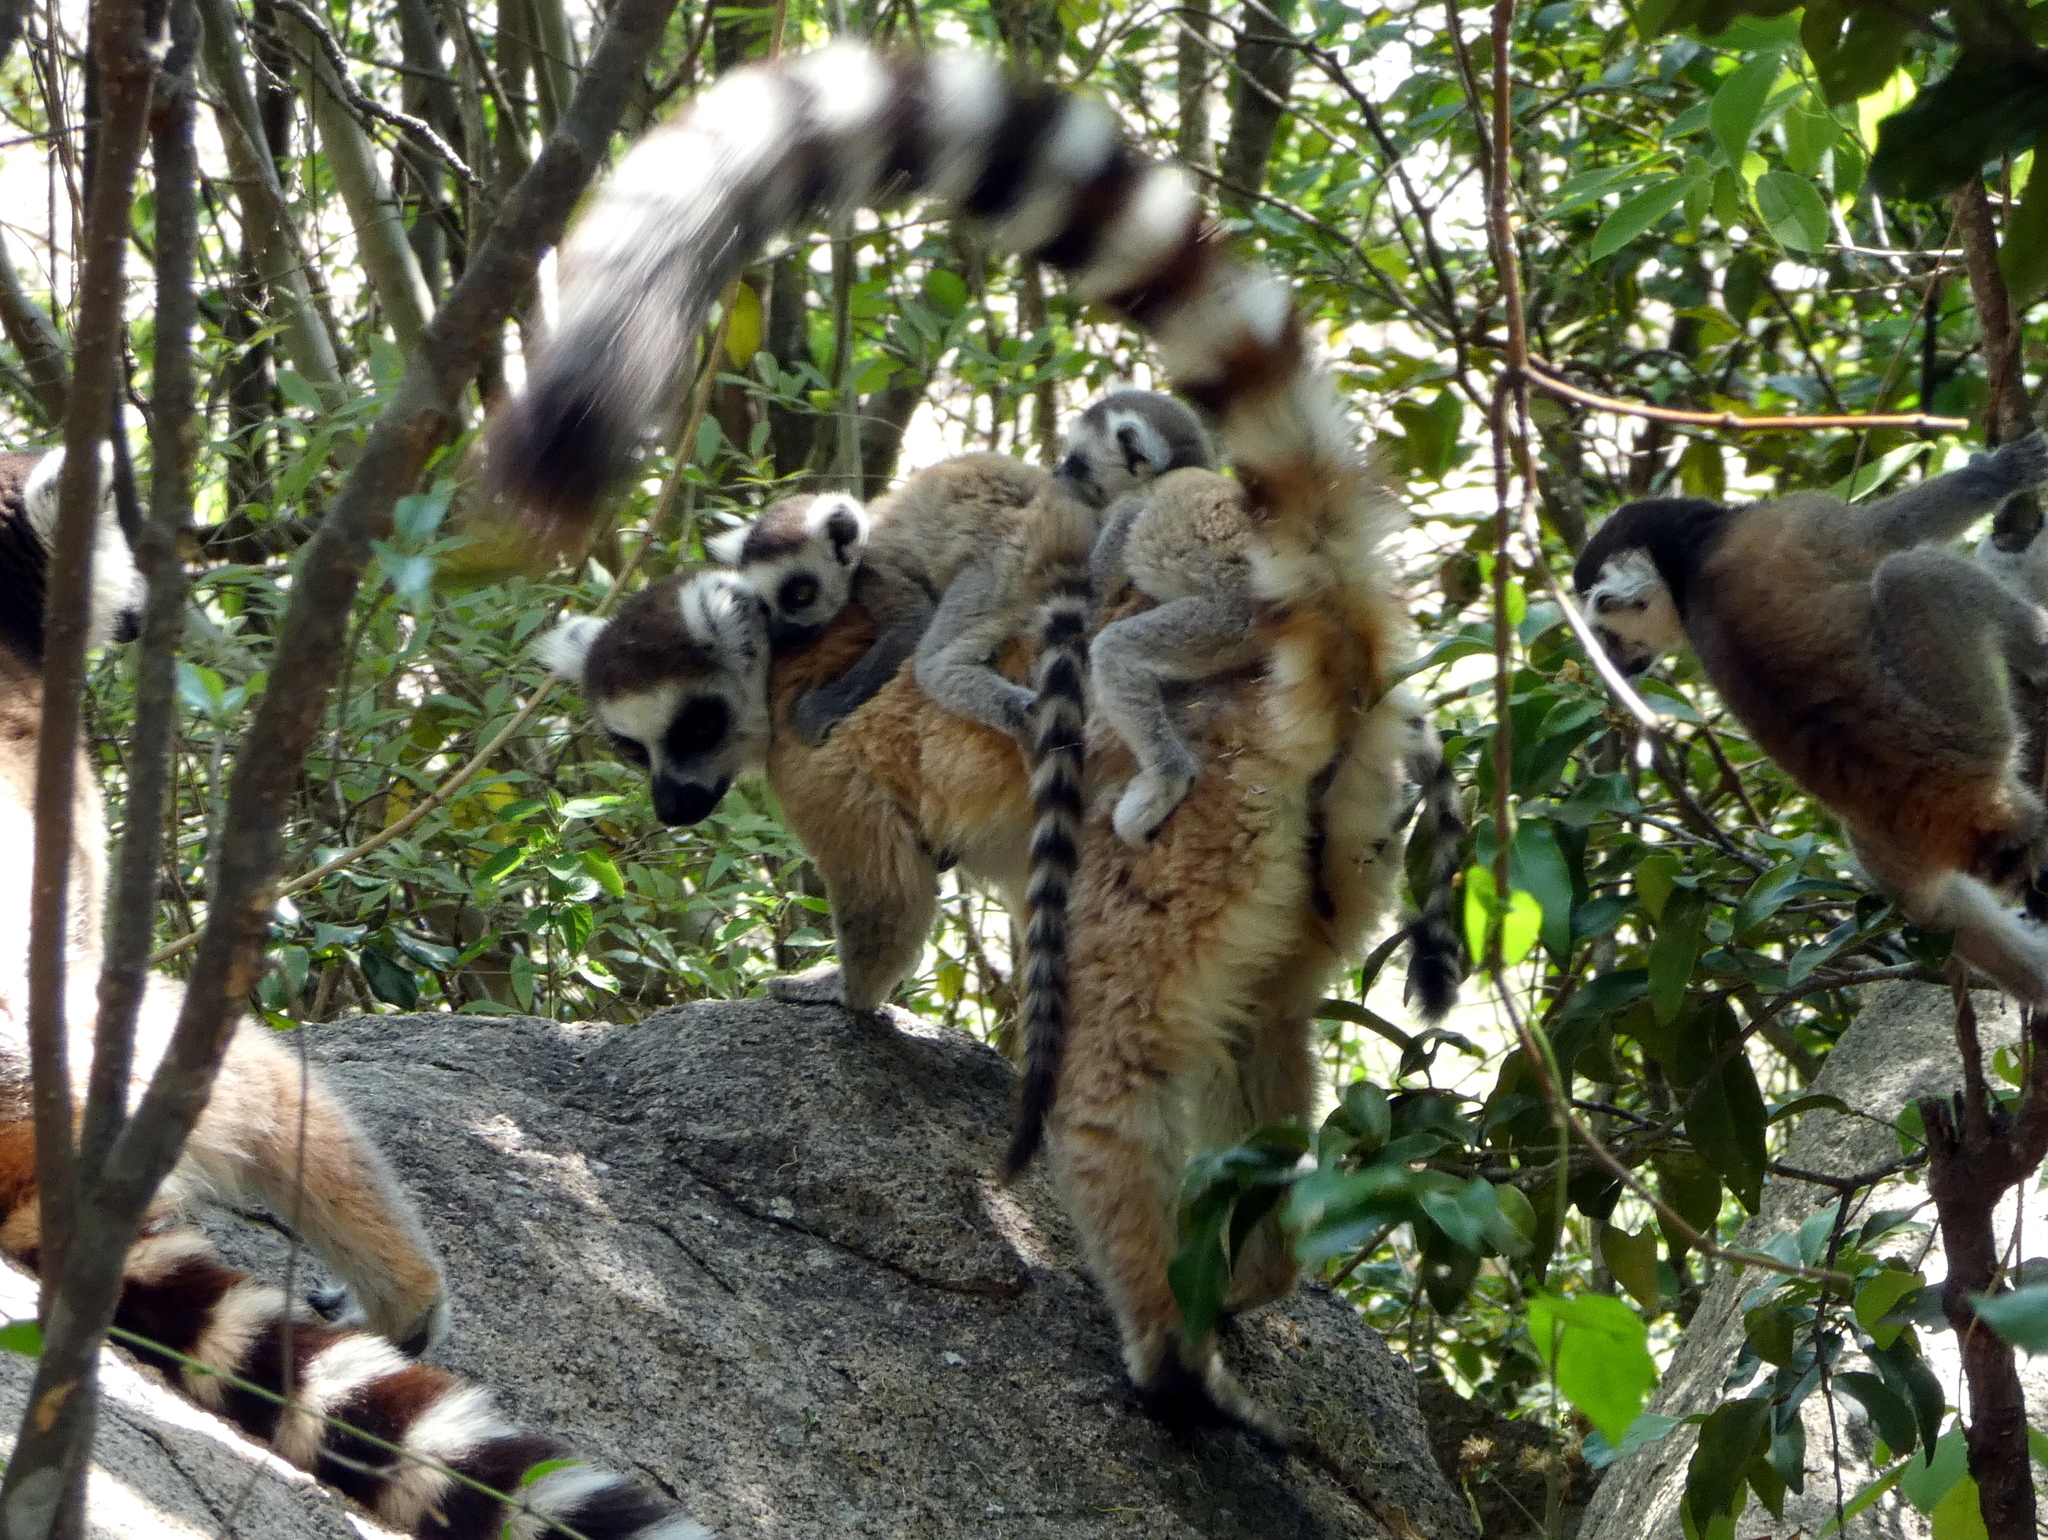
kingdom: Animalia
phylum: Chordata
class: Mammalia
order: Primates
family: Lemuridae
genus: Lemur
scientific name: Lemur catta
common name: Ring-tailed lemur
